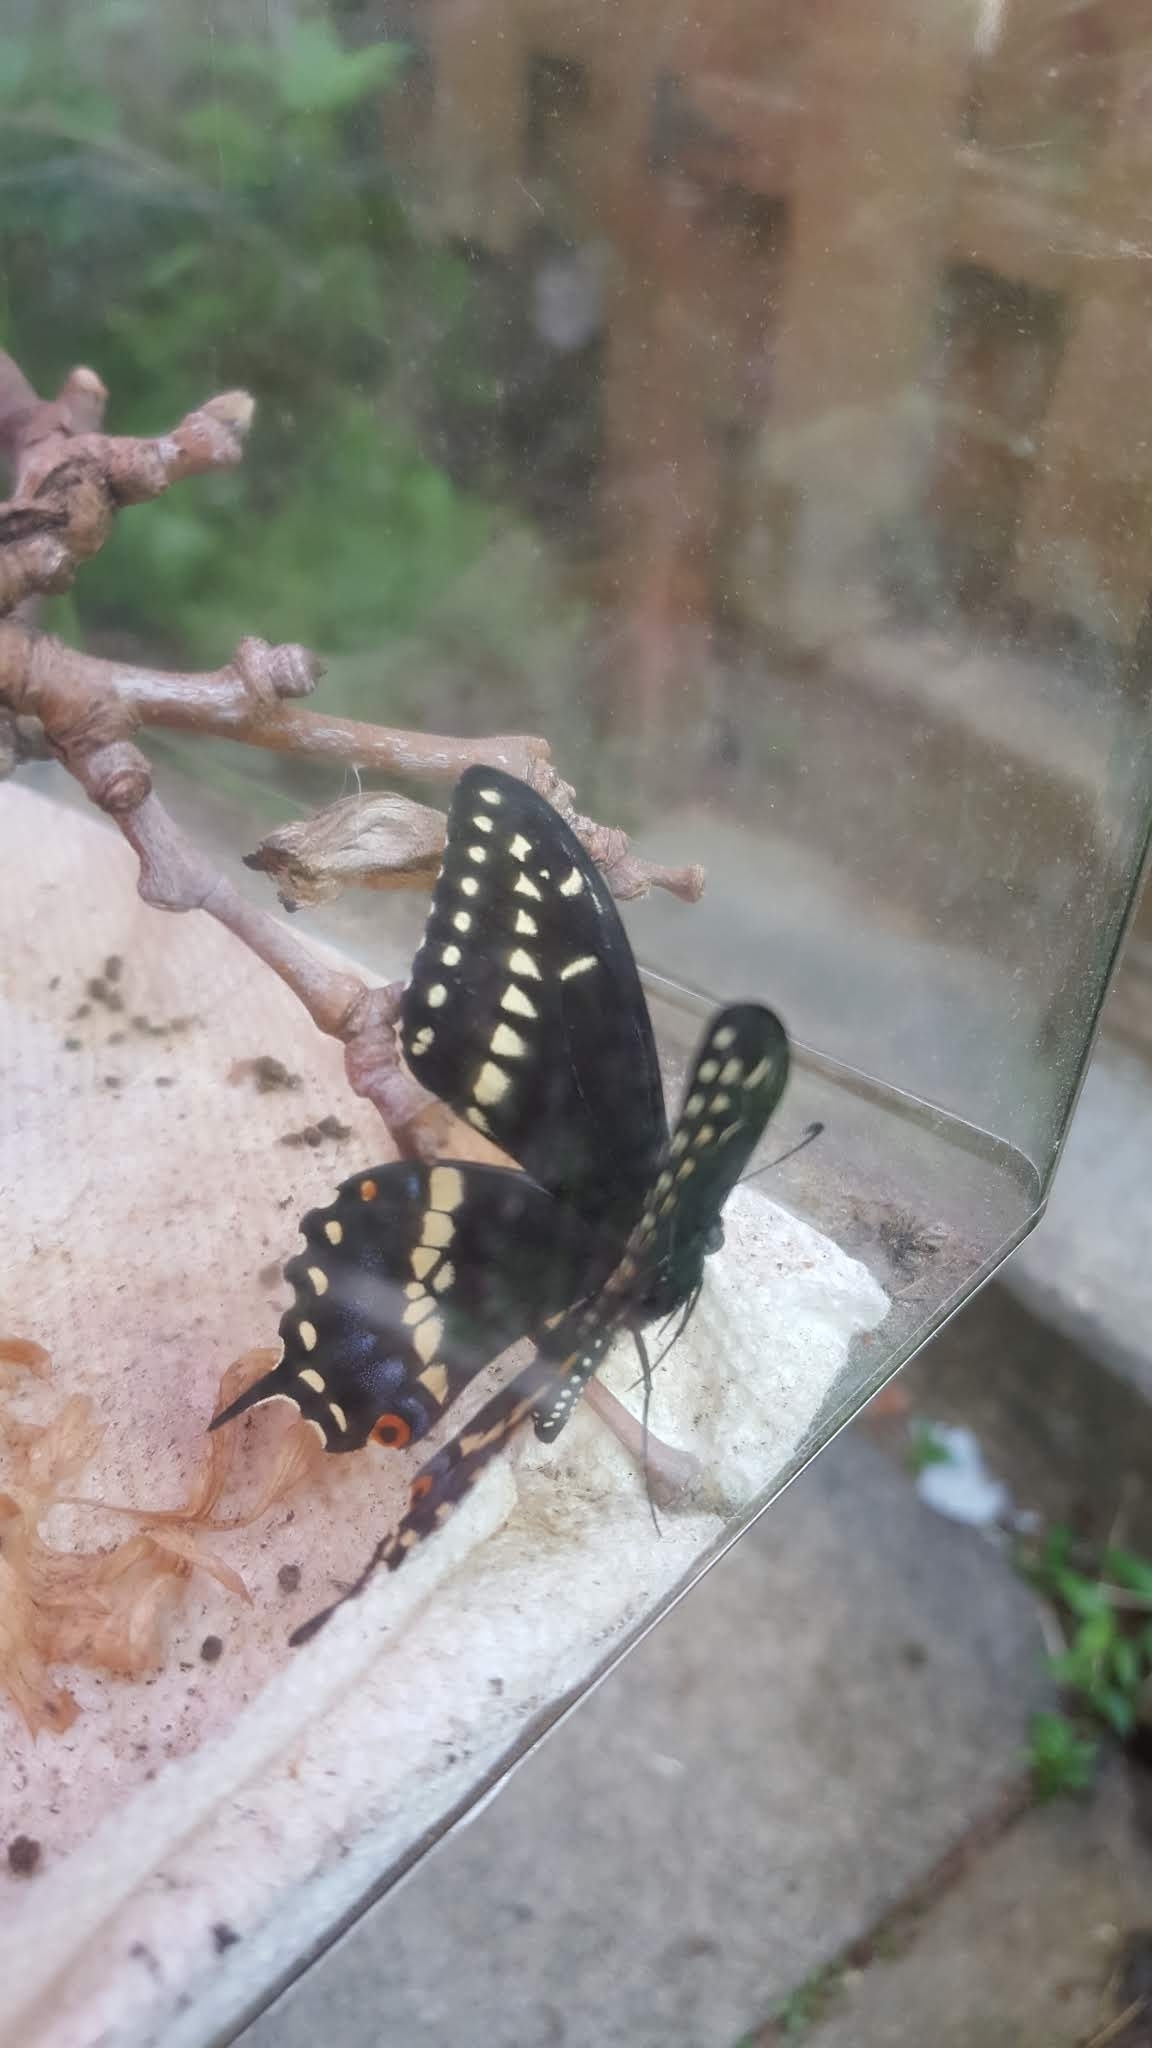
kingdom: Animalia
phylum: Arthropoda
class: Insecta
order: Lepidoptera
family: Papilionidae
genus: Papilio
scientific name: Papilio polyxenes
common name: Black swallowtail
